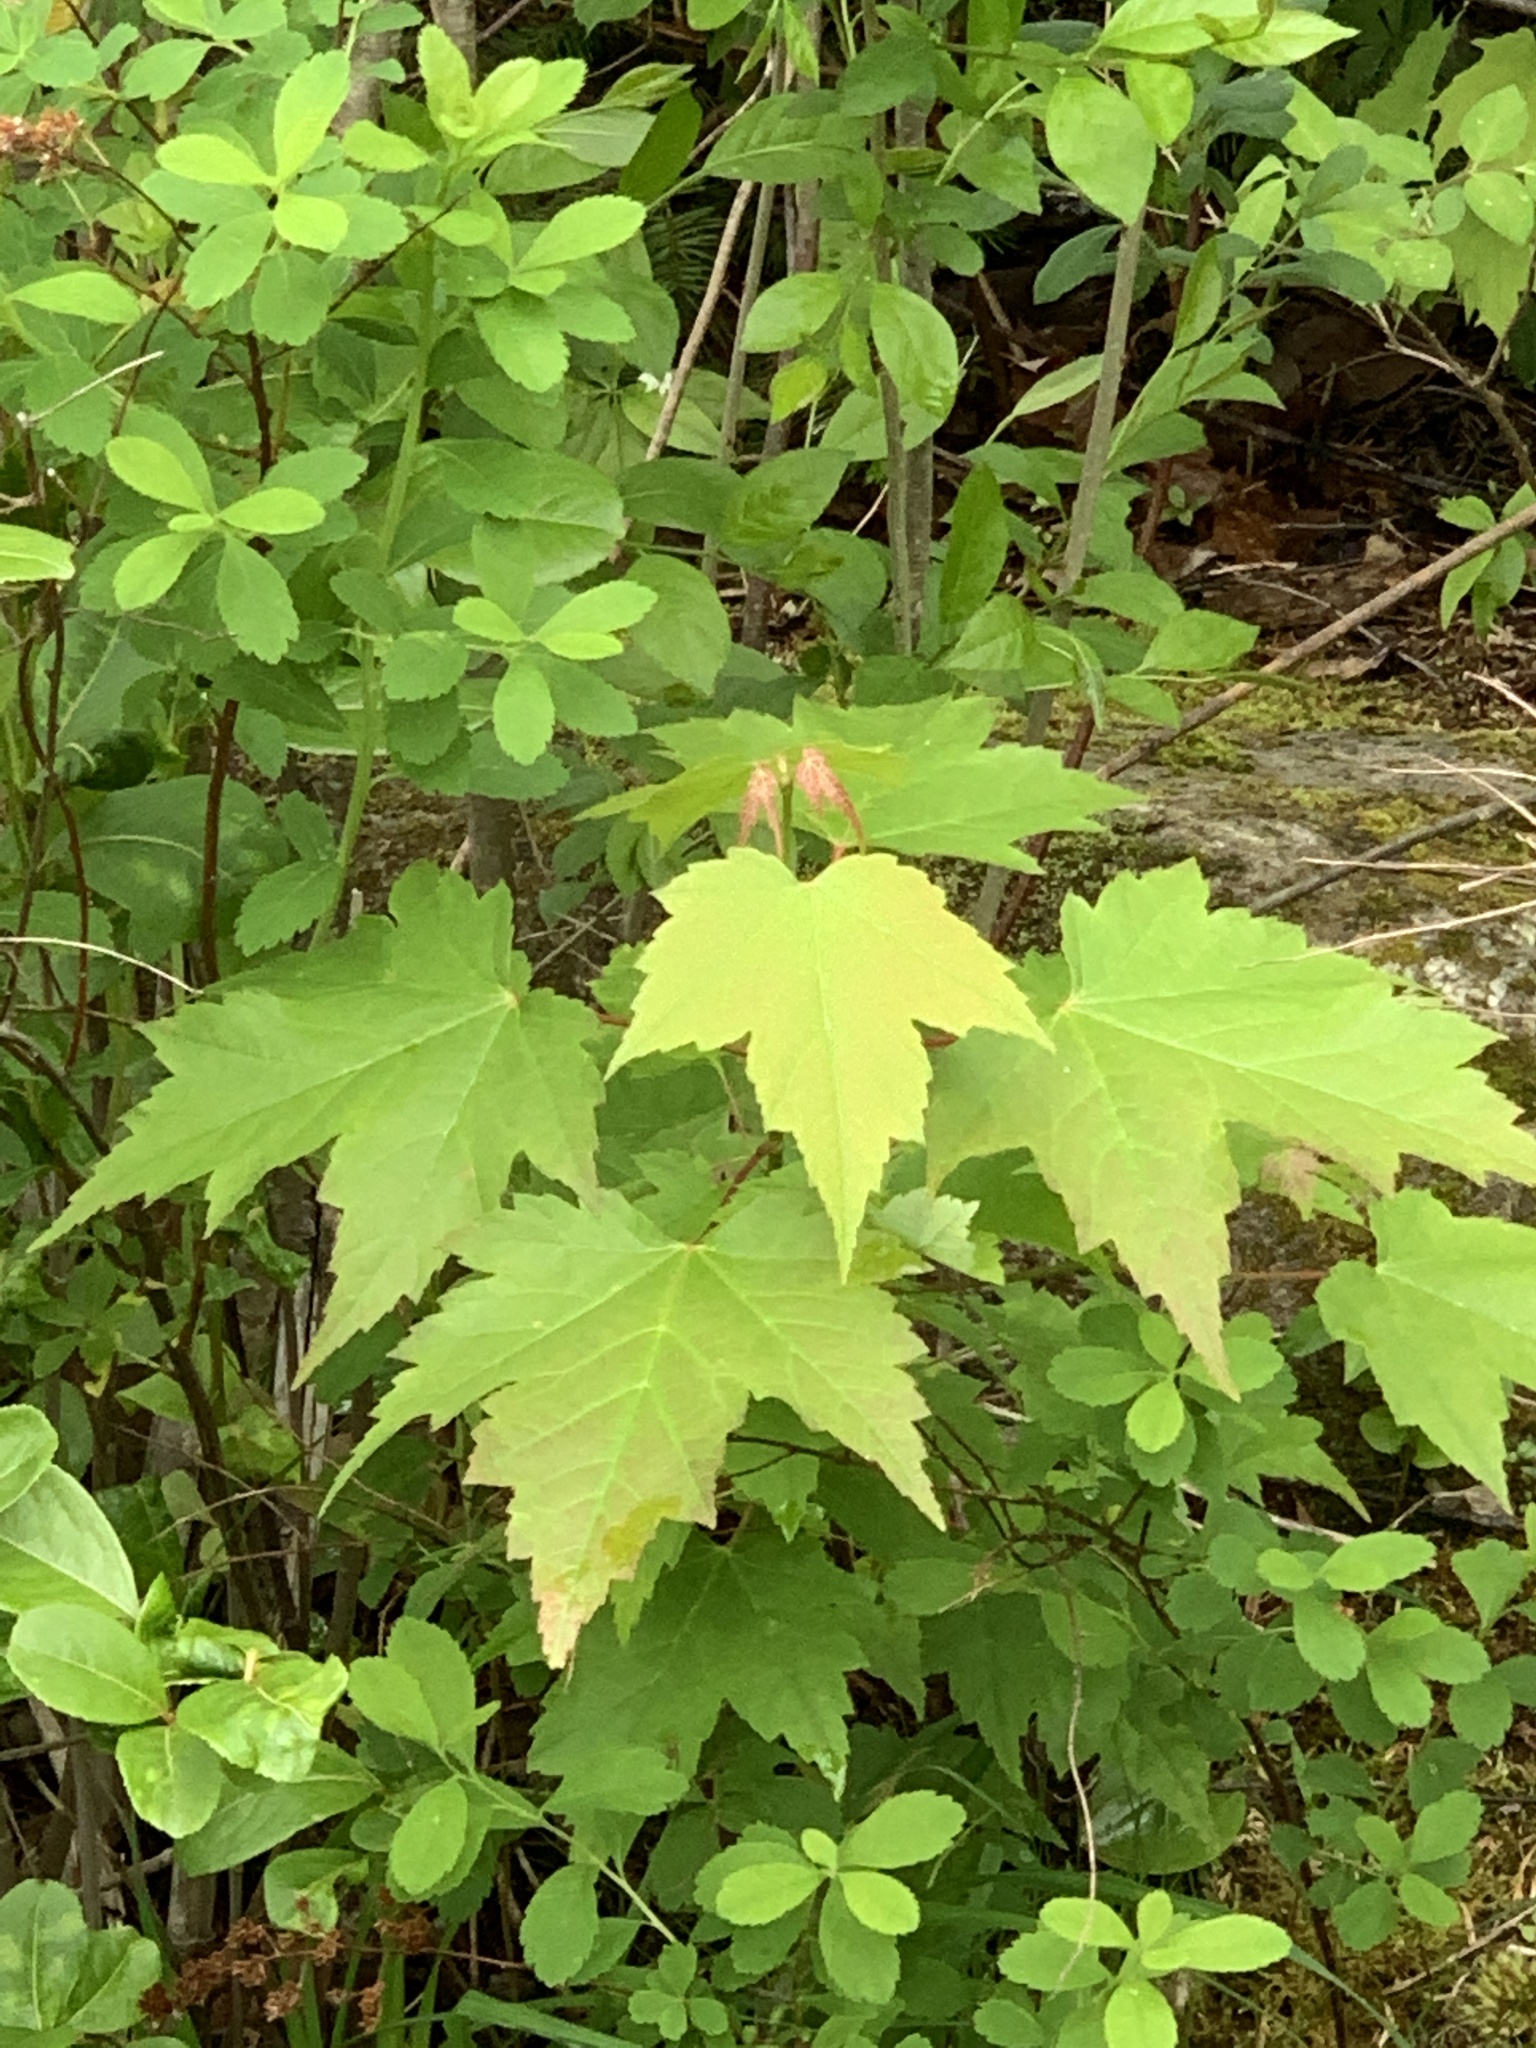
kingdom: Plantae
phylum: Tracheophyta
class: Magnoliopsida
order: Sapindales
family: Sapindaceae
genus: Acer
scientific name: Acer rubrum
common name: Red maple
